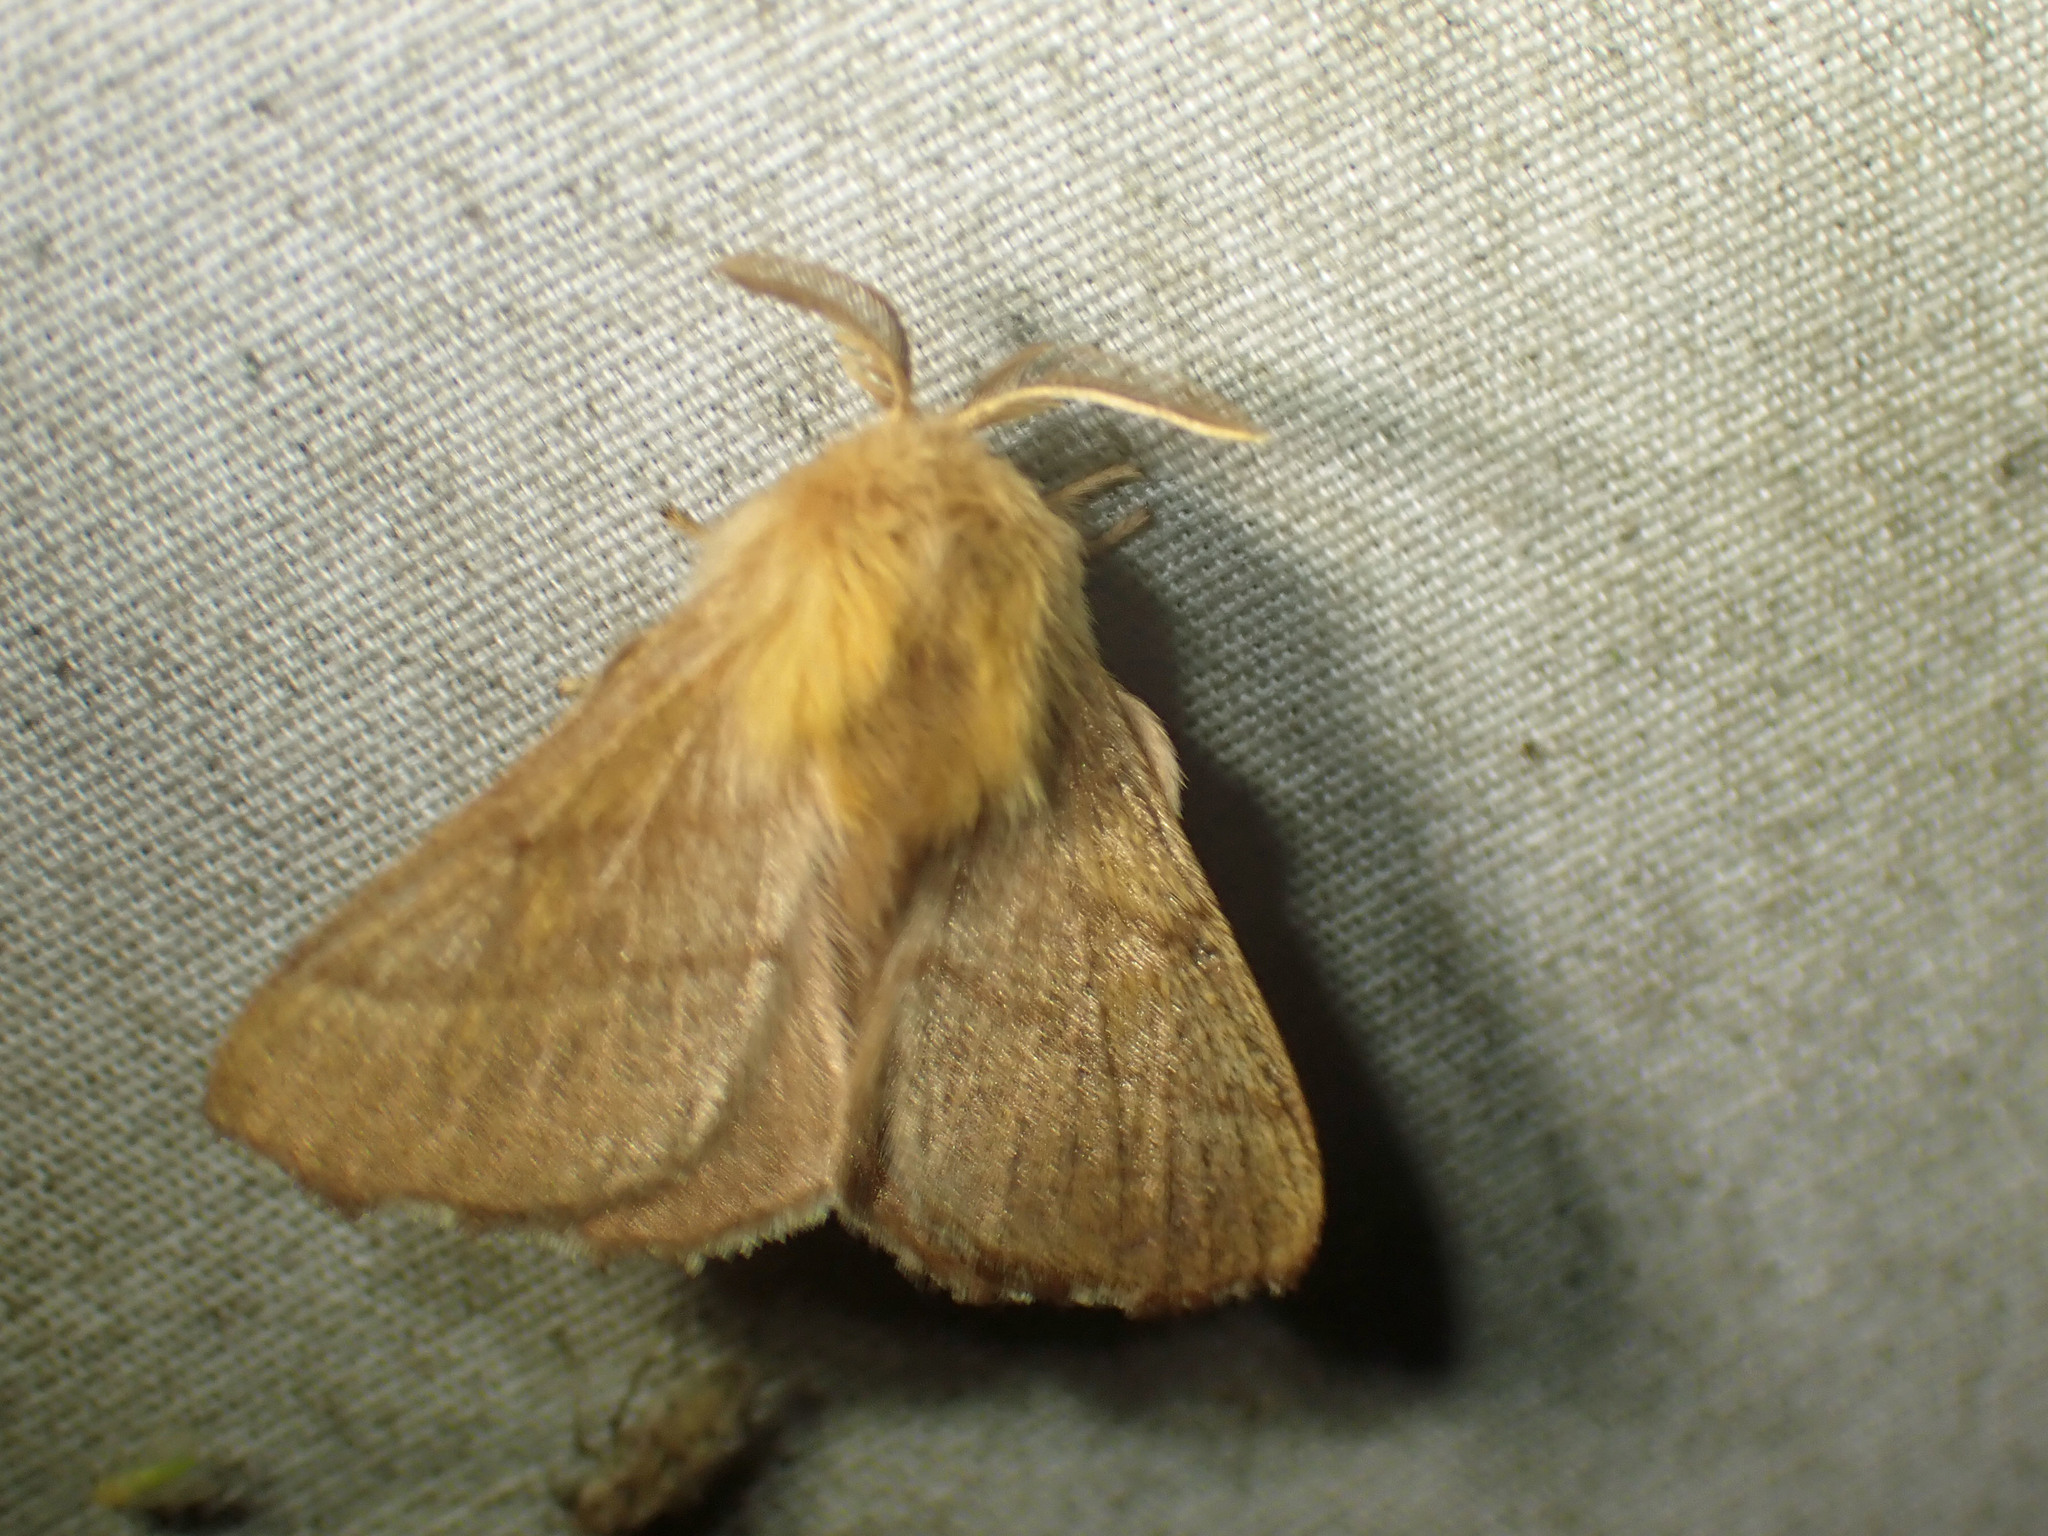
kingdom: Animalia
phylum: Arthropoda
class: Insecta
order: Lepidoptera
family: Lasiocampidae
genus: Malacosoma
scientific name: Malacosoma disstria
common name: Forest tent caterpillar
